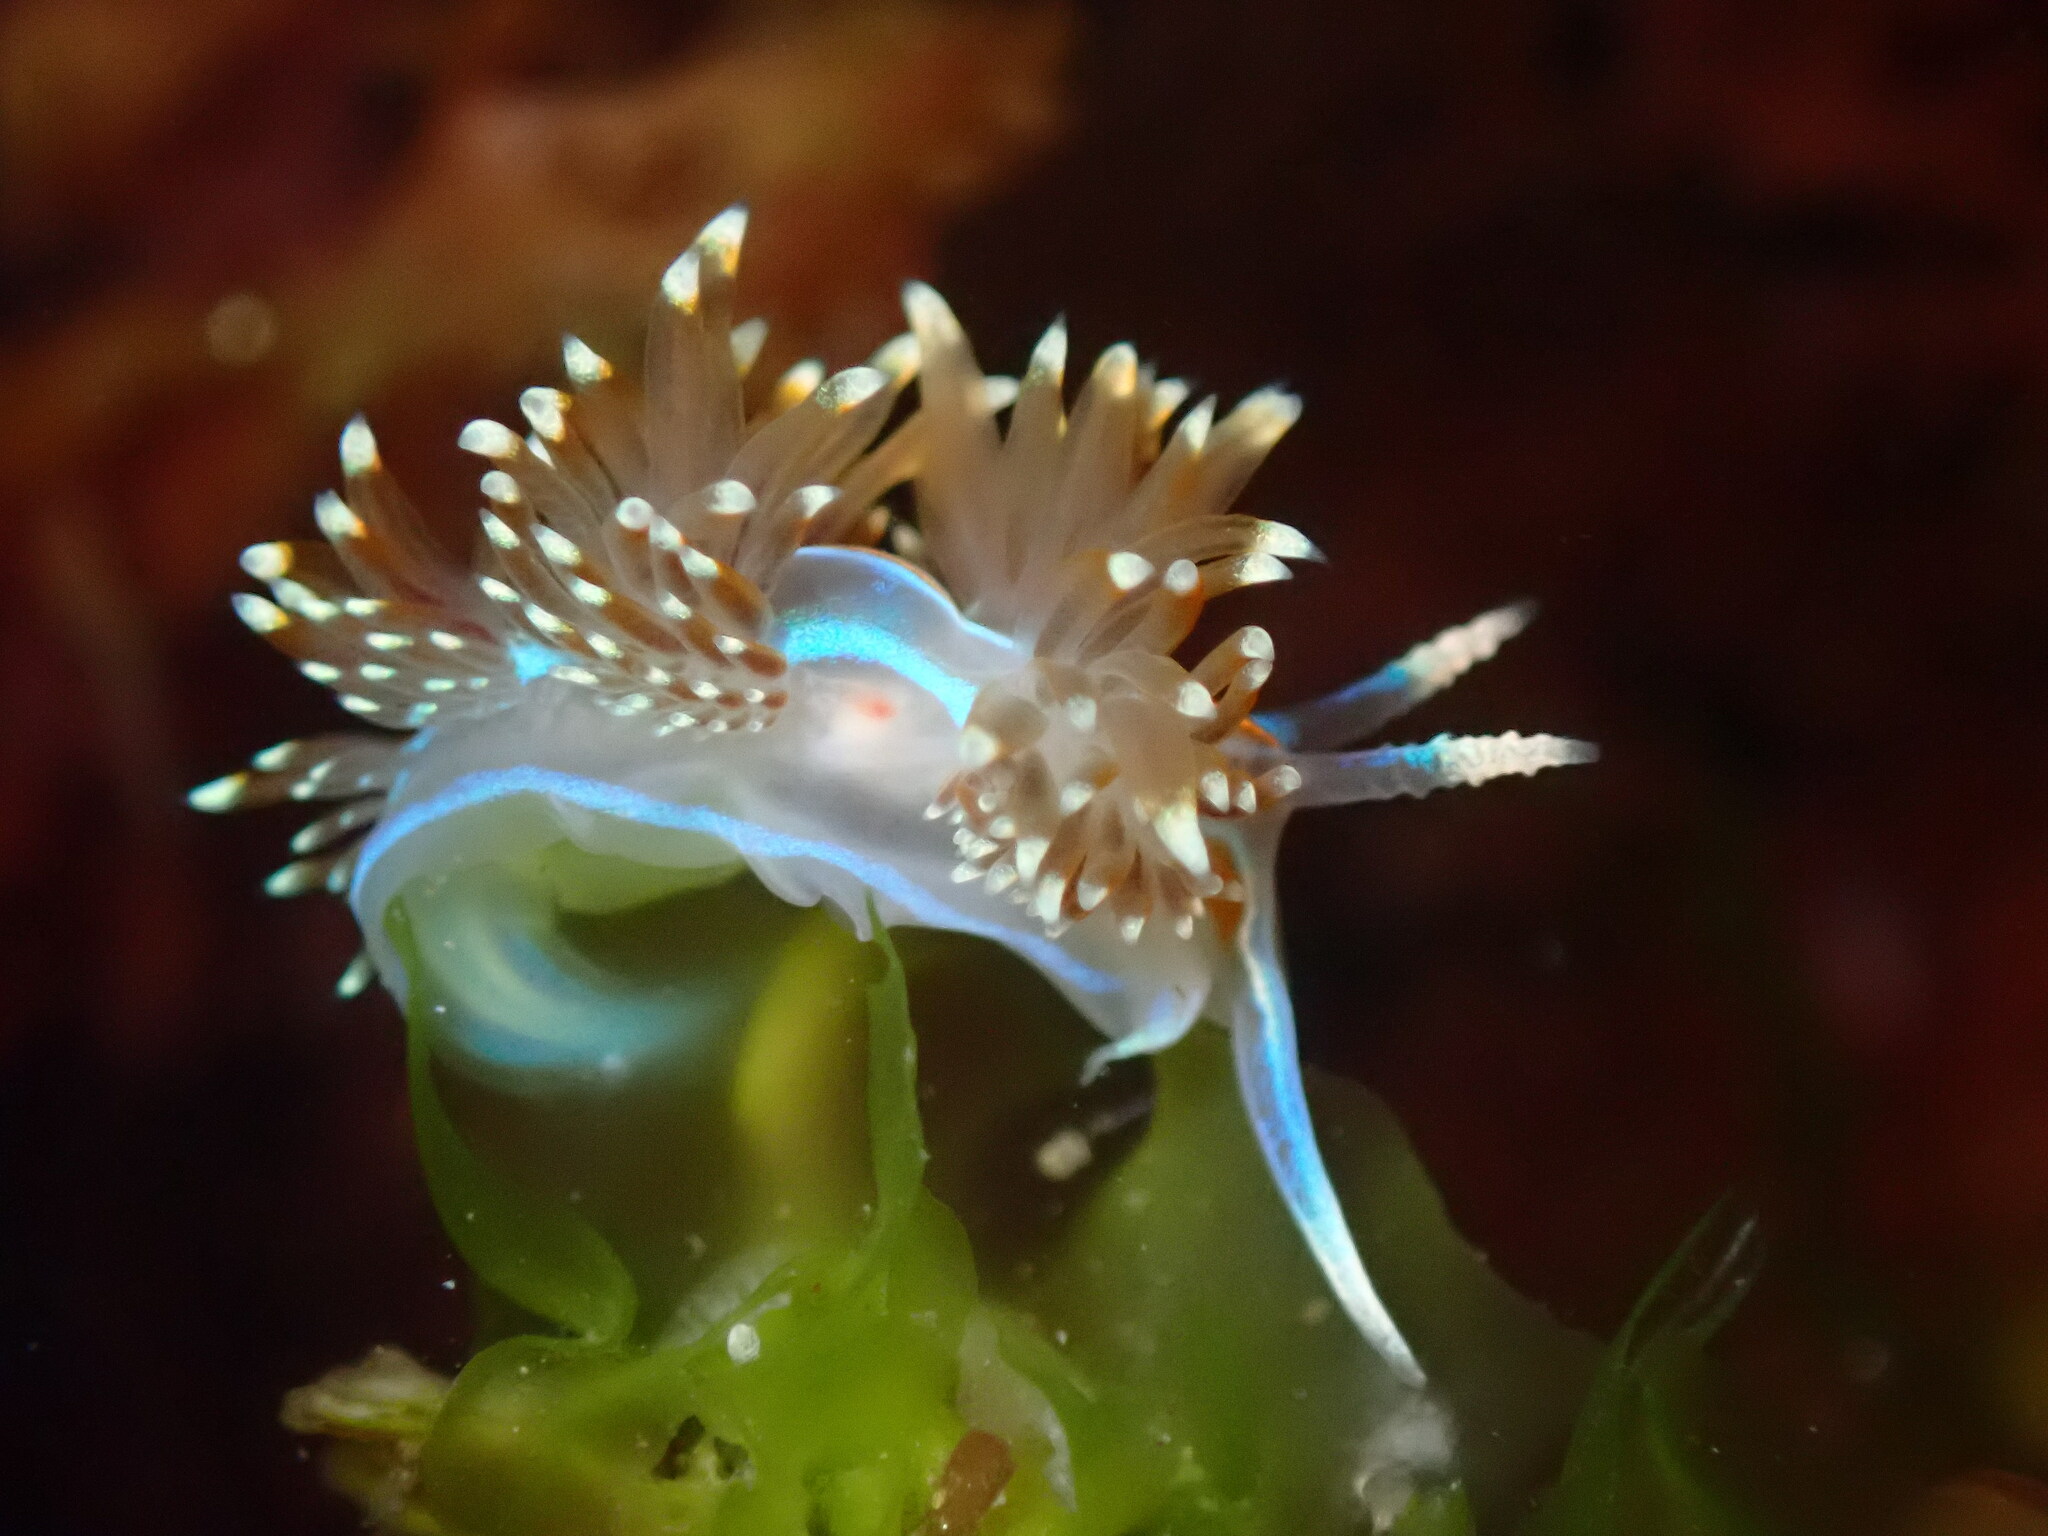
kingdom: Animalia
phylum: Mollusca
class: Gastropoda
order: Nudibranchia
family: Myrrhinidae
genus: Hermissenda
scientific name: Hermissenda opalescens
